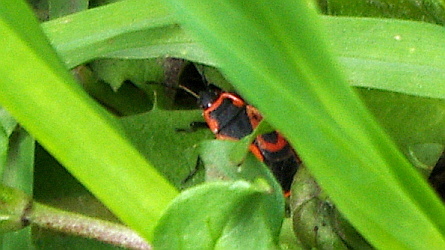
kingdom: Animalia
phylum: Arthropoda
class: Insecta
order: Hemiptera
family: Pyrrhocoridae
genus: Pyrrhocoris
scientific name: Pyrrhocoris apterus
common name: Firebug
